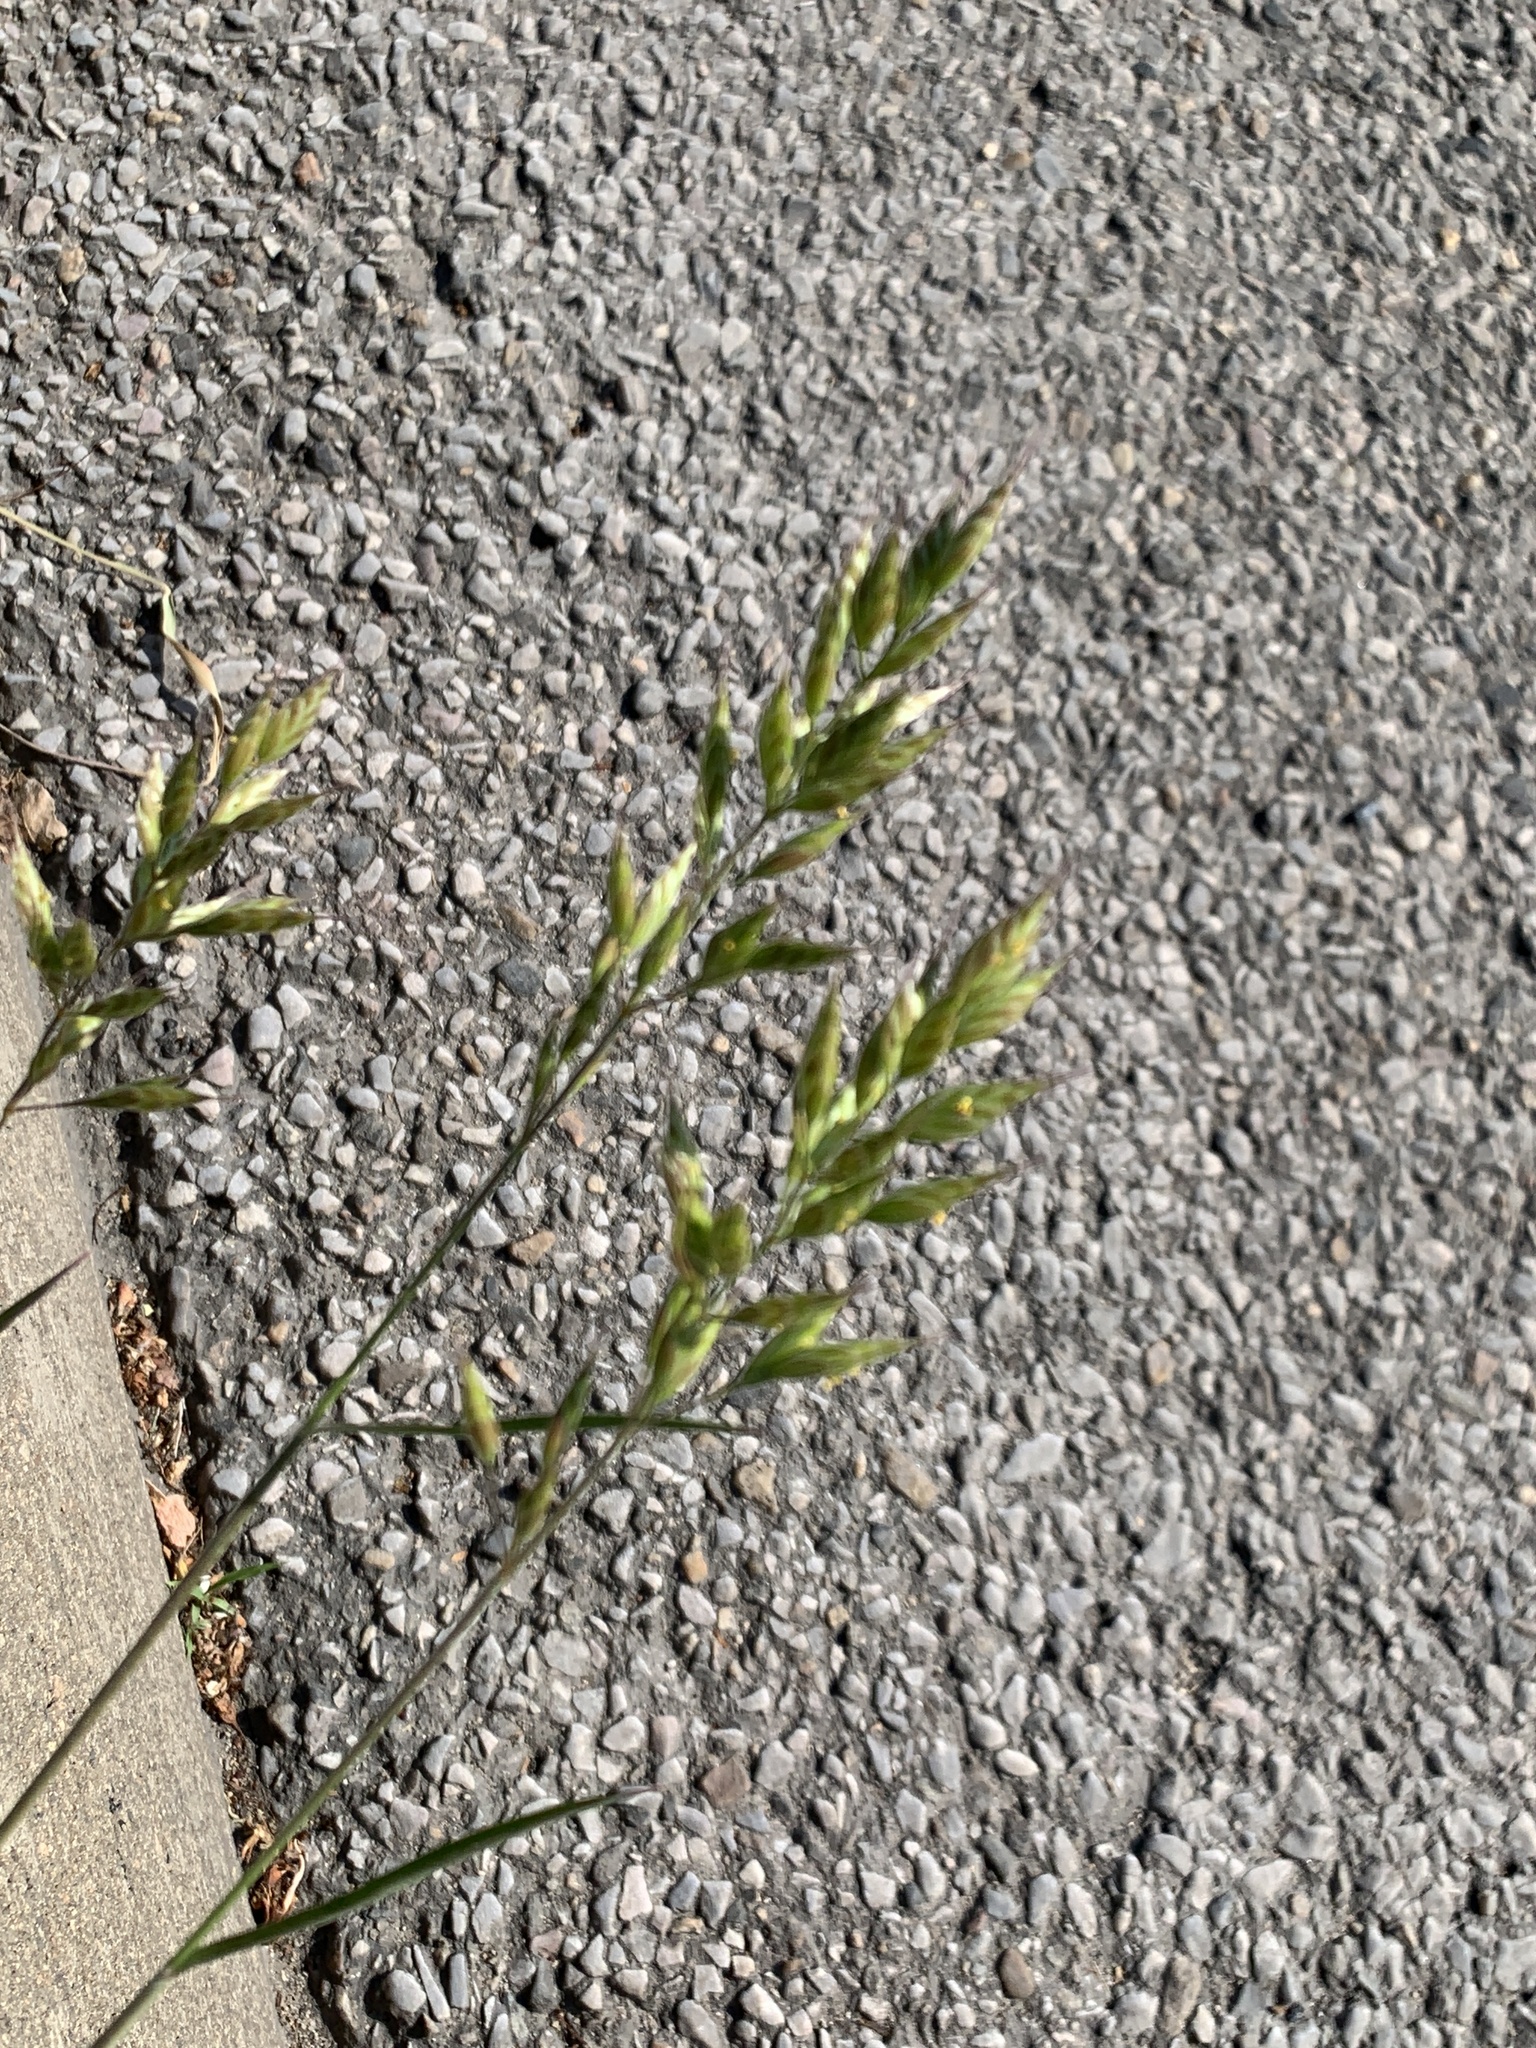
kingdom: Plantae
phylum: Tracheophyta
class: Liliopsida
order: Poales
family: Poaceae
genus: Bromus
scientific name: Bromus hordeaceus
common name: Soft brome
